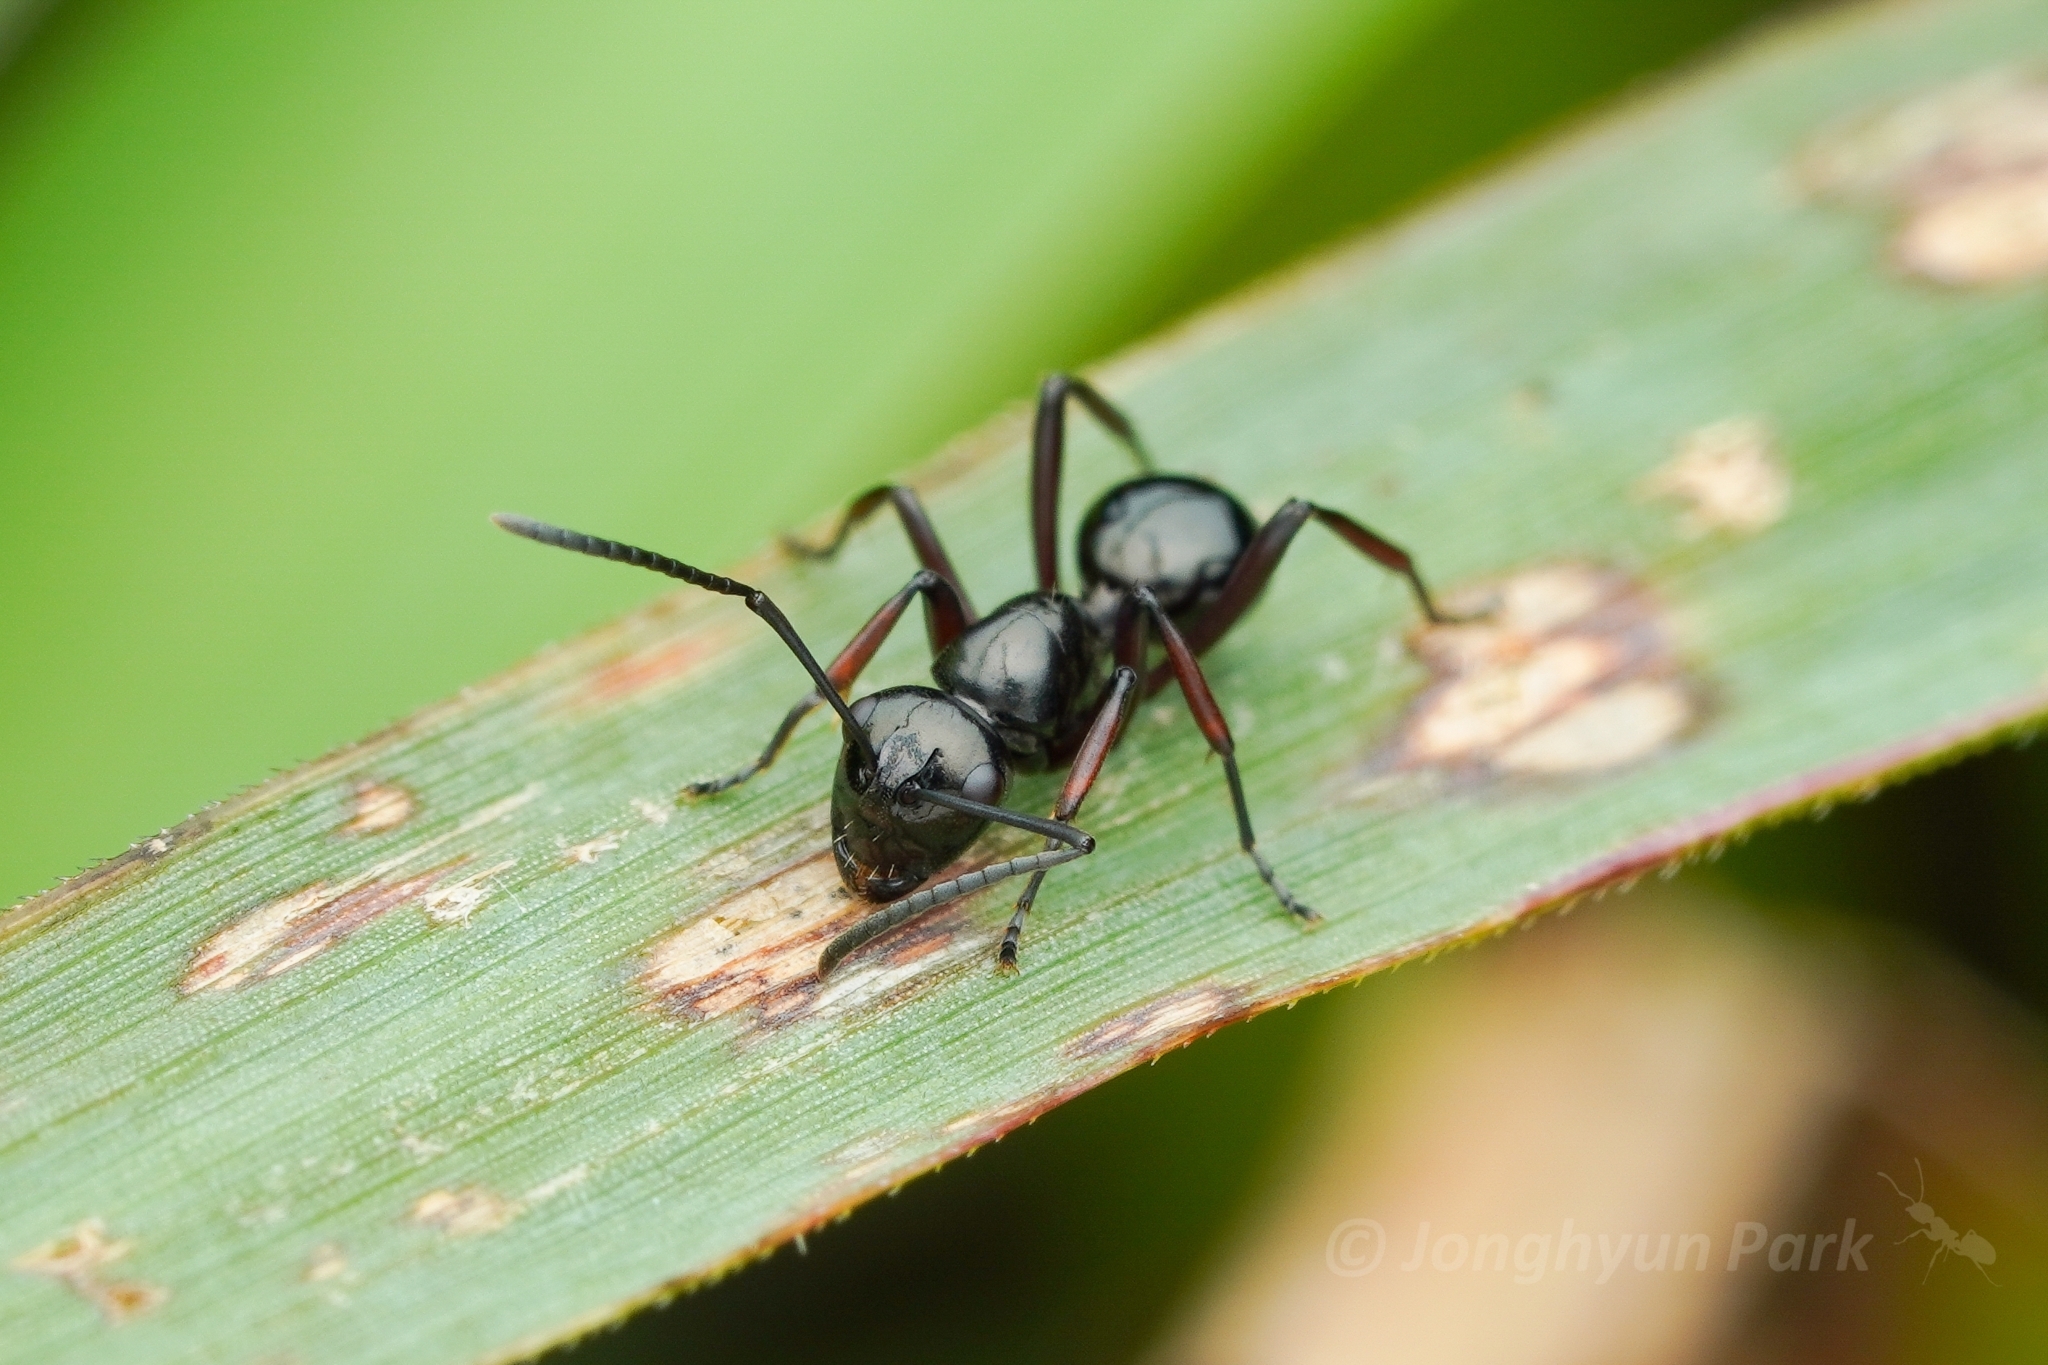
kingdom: Animalia
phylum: Arthropoda
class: Insecta
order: Hymenoptera
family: Formicidae
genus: Polyrhachis
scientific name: Polyrhachis lepida
